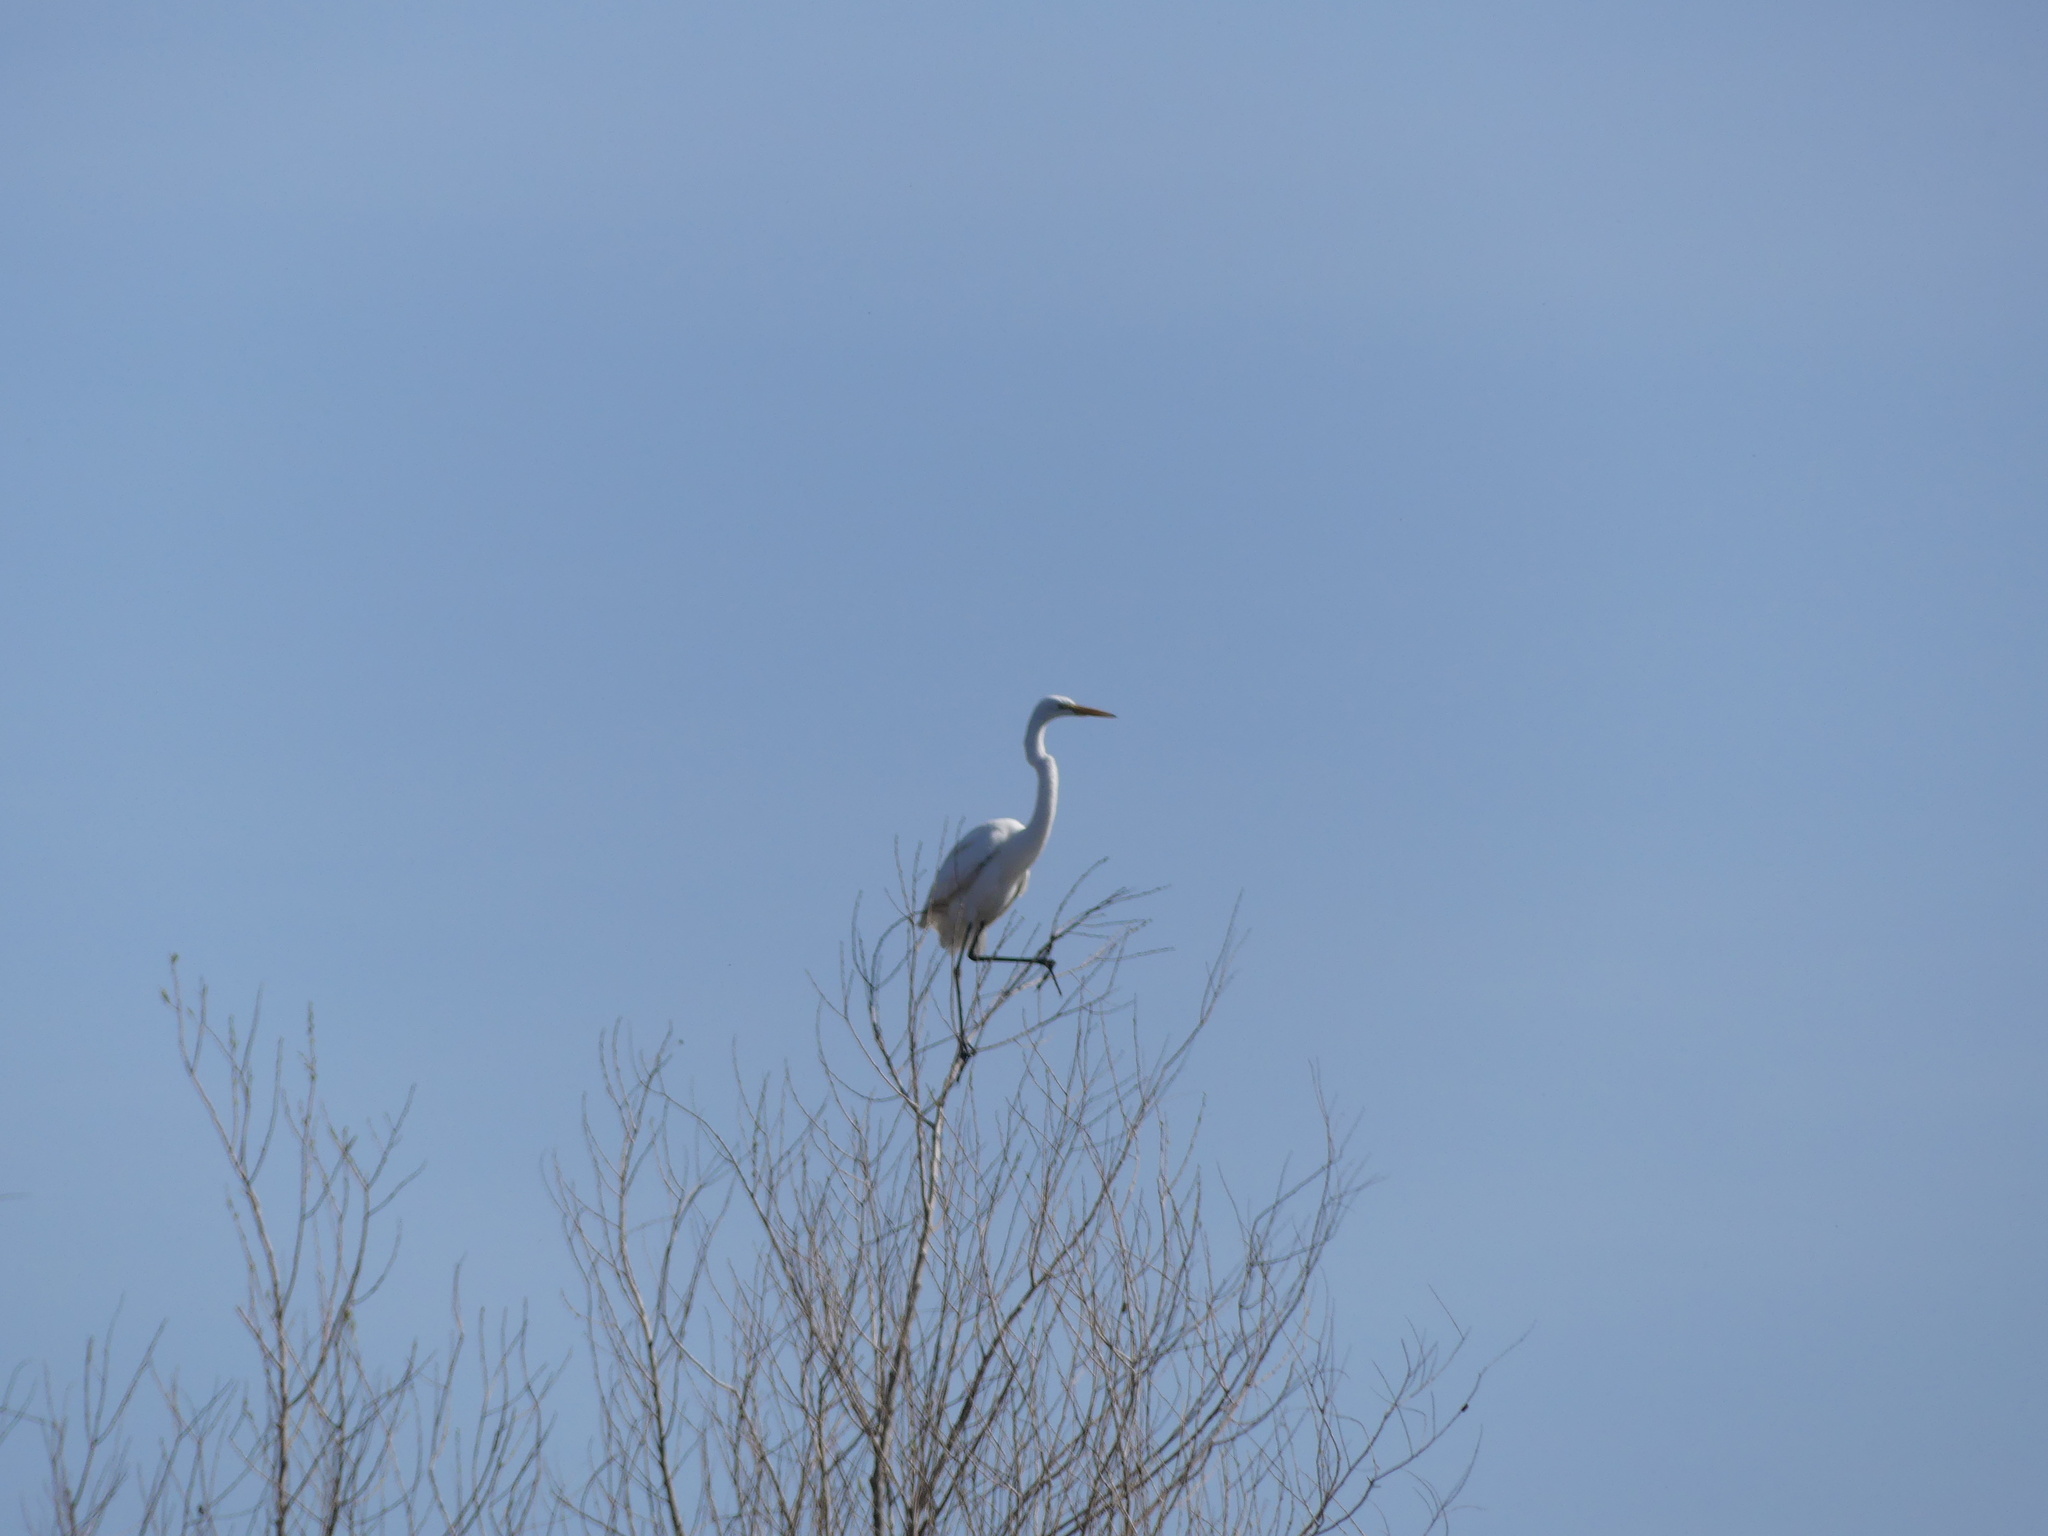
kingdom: Animalia
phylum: Chordata
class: Aves
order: Pelecaniformes
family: Ardeidae
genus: Ardea
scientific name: Ardea alba
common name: Great egret
